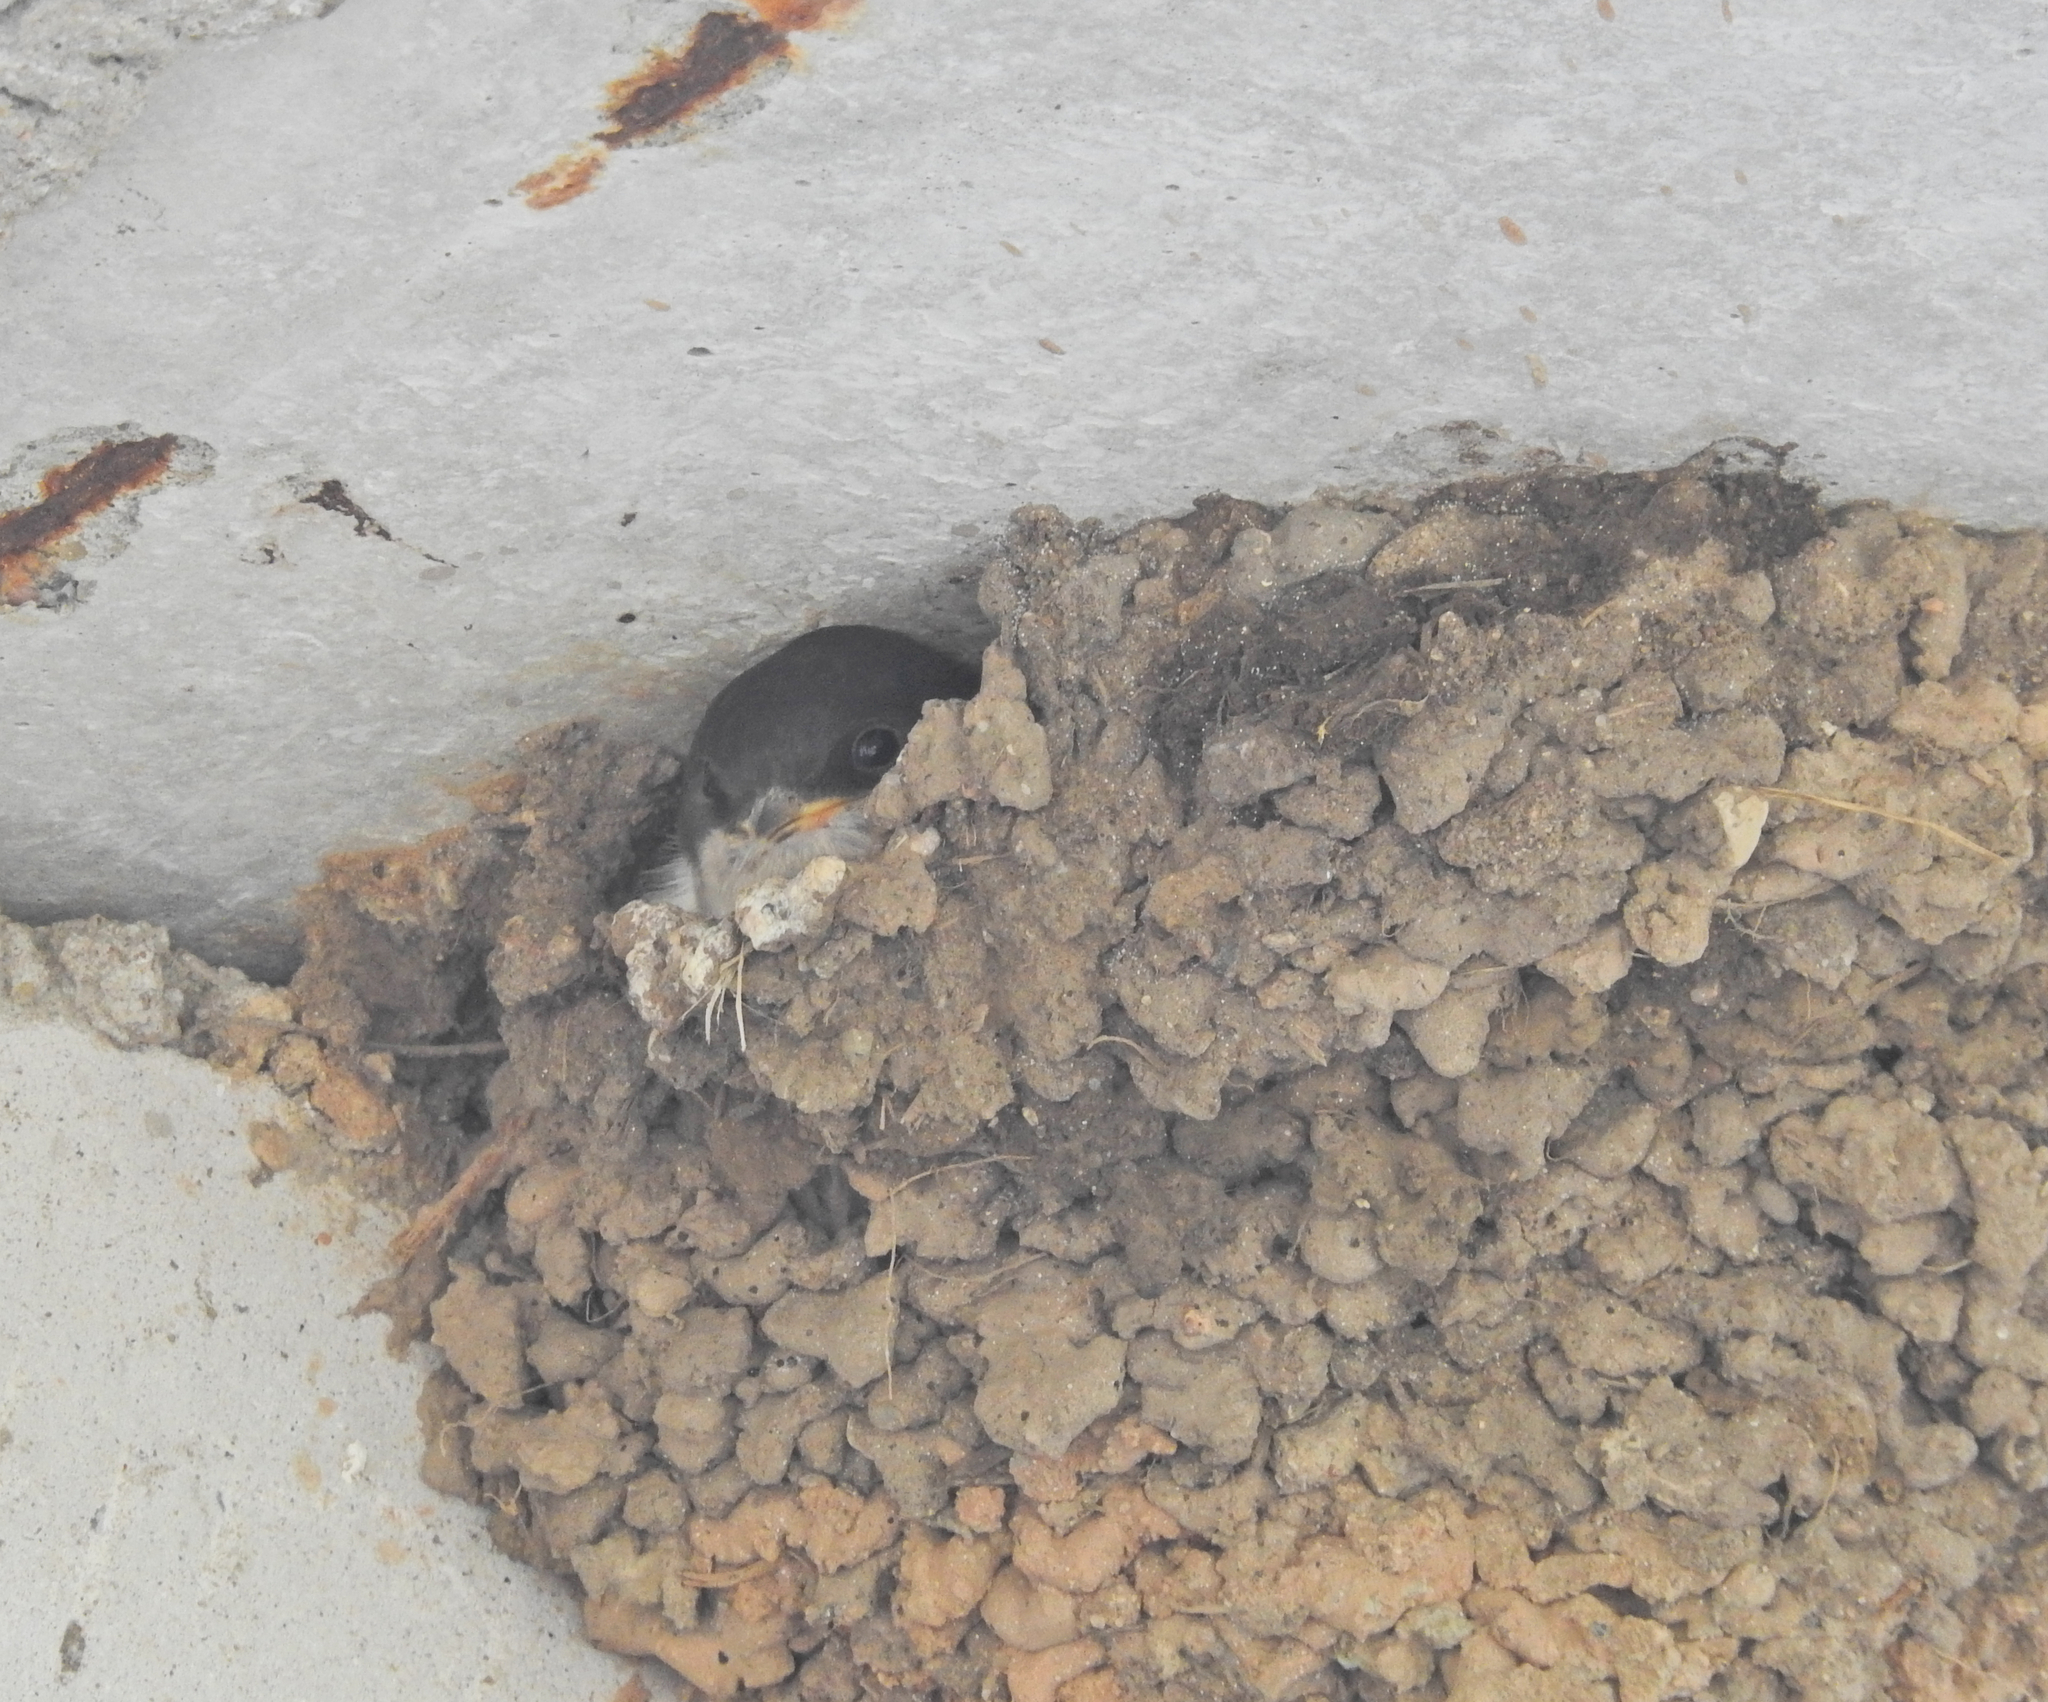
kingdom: Animalia
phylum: Chordata
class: Aves
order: Passeriformes
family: Hirundinidae
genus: Delichon
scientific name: Delichon urbicum
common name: Common house martin
